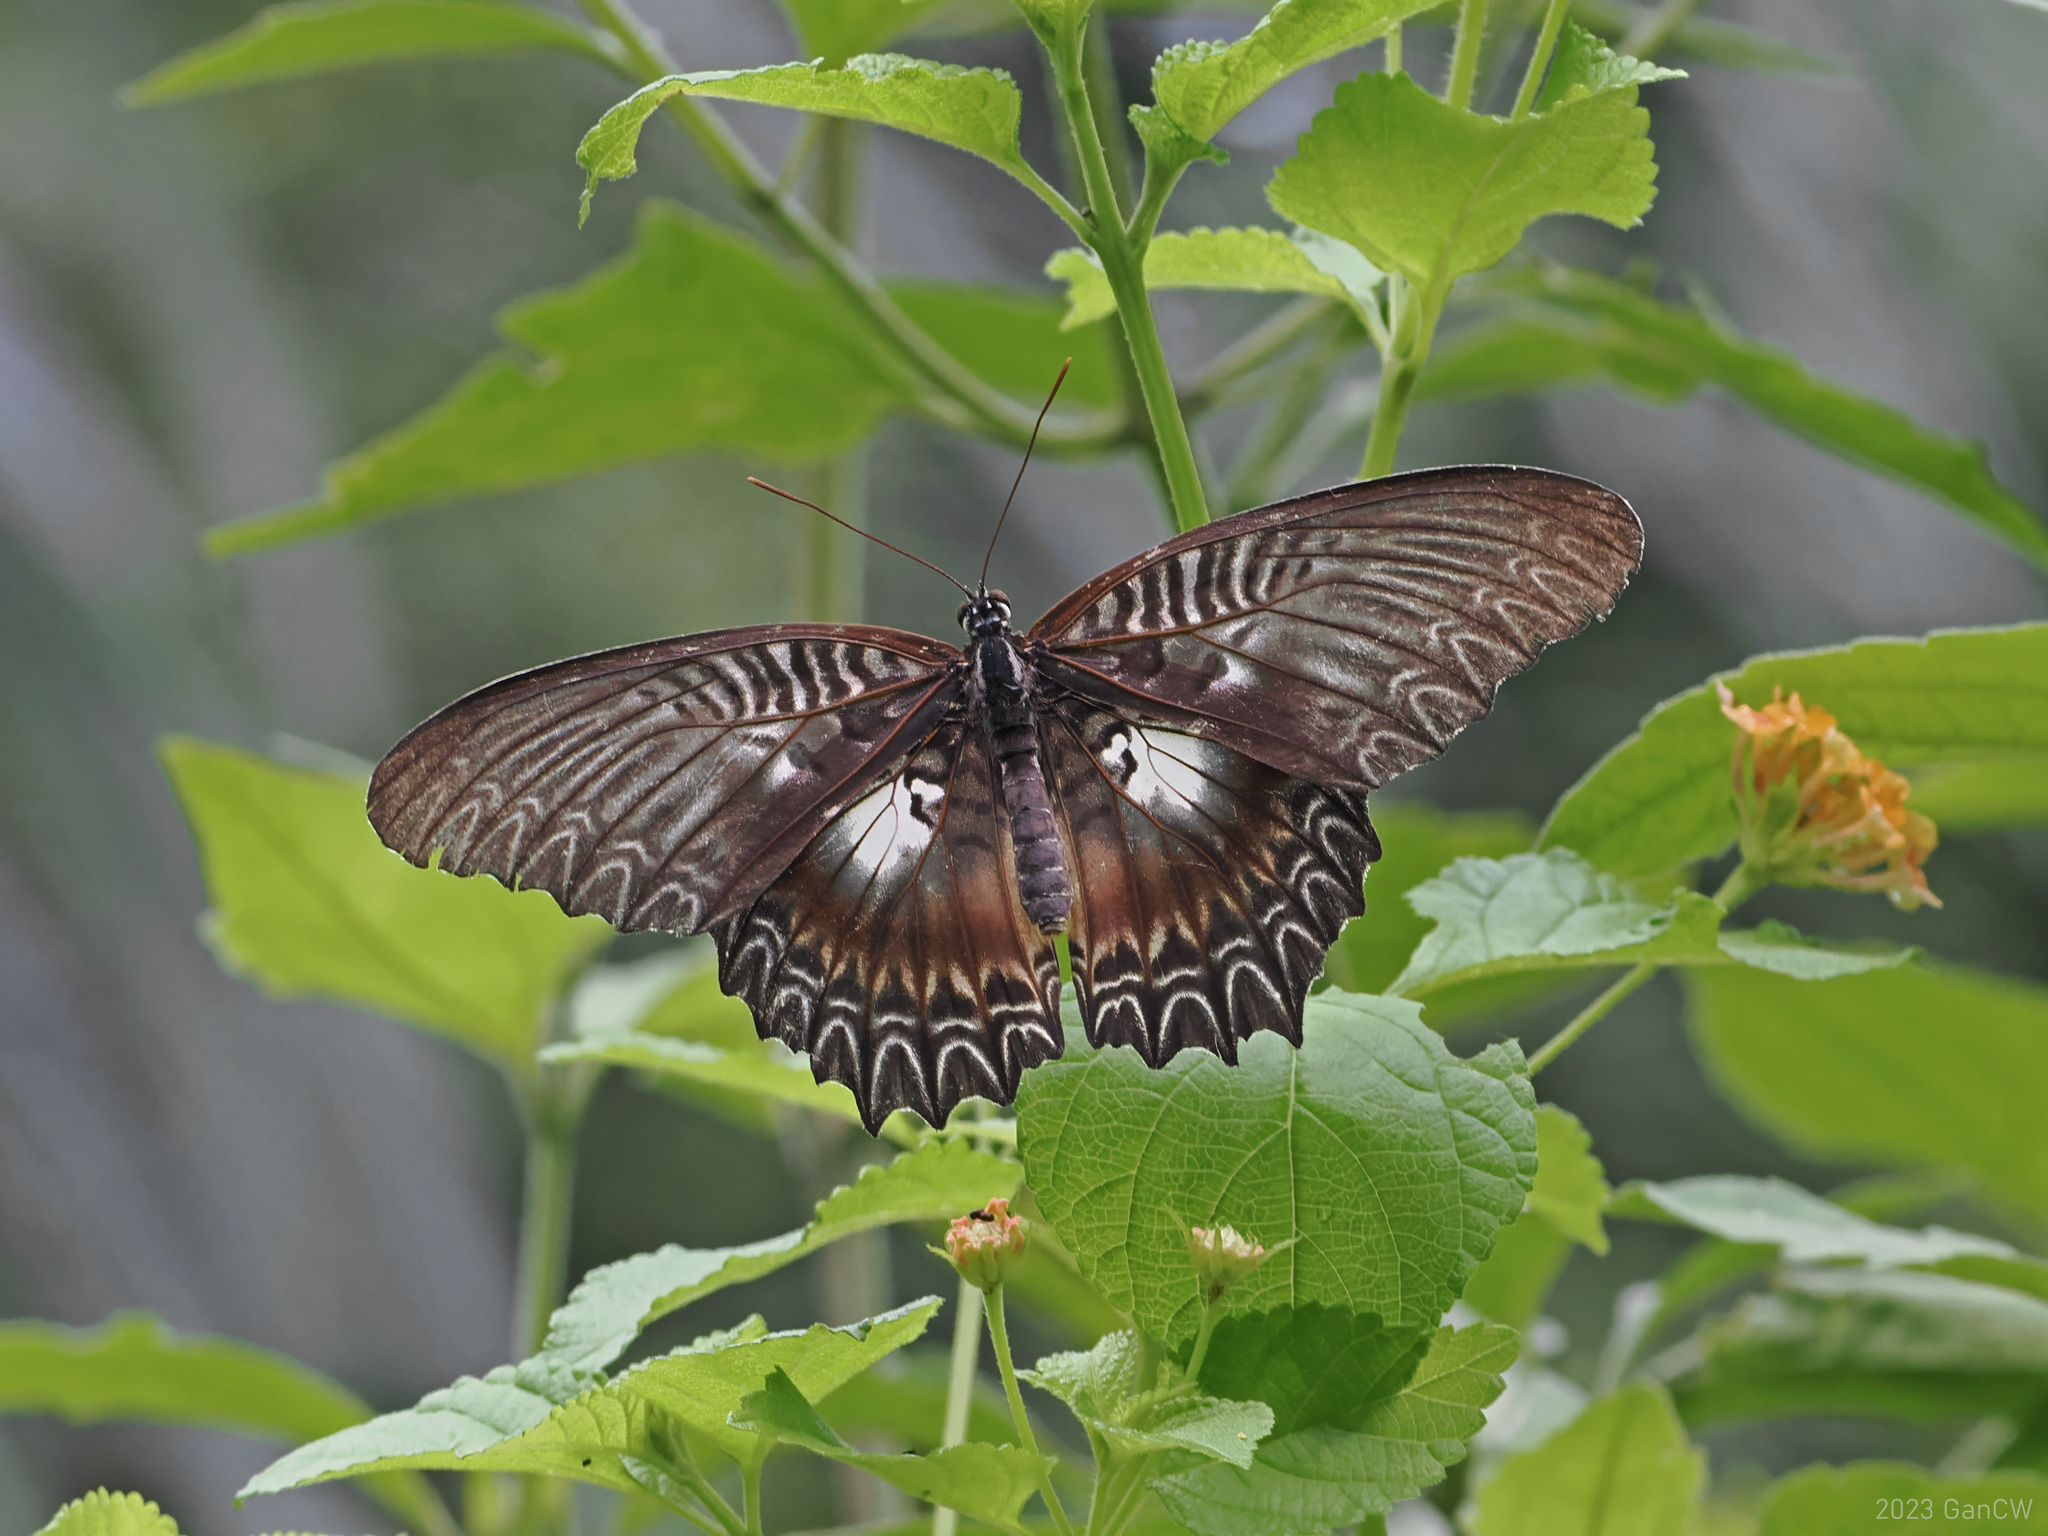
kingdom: Animalia
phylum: Arthropoda
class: Insecta
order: Lepidoptera
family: Nymphalidae
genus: Cethosia
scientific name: Cethosia myrina
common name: Violet lacewing
